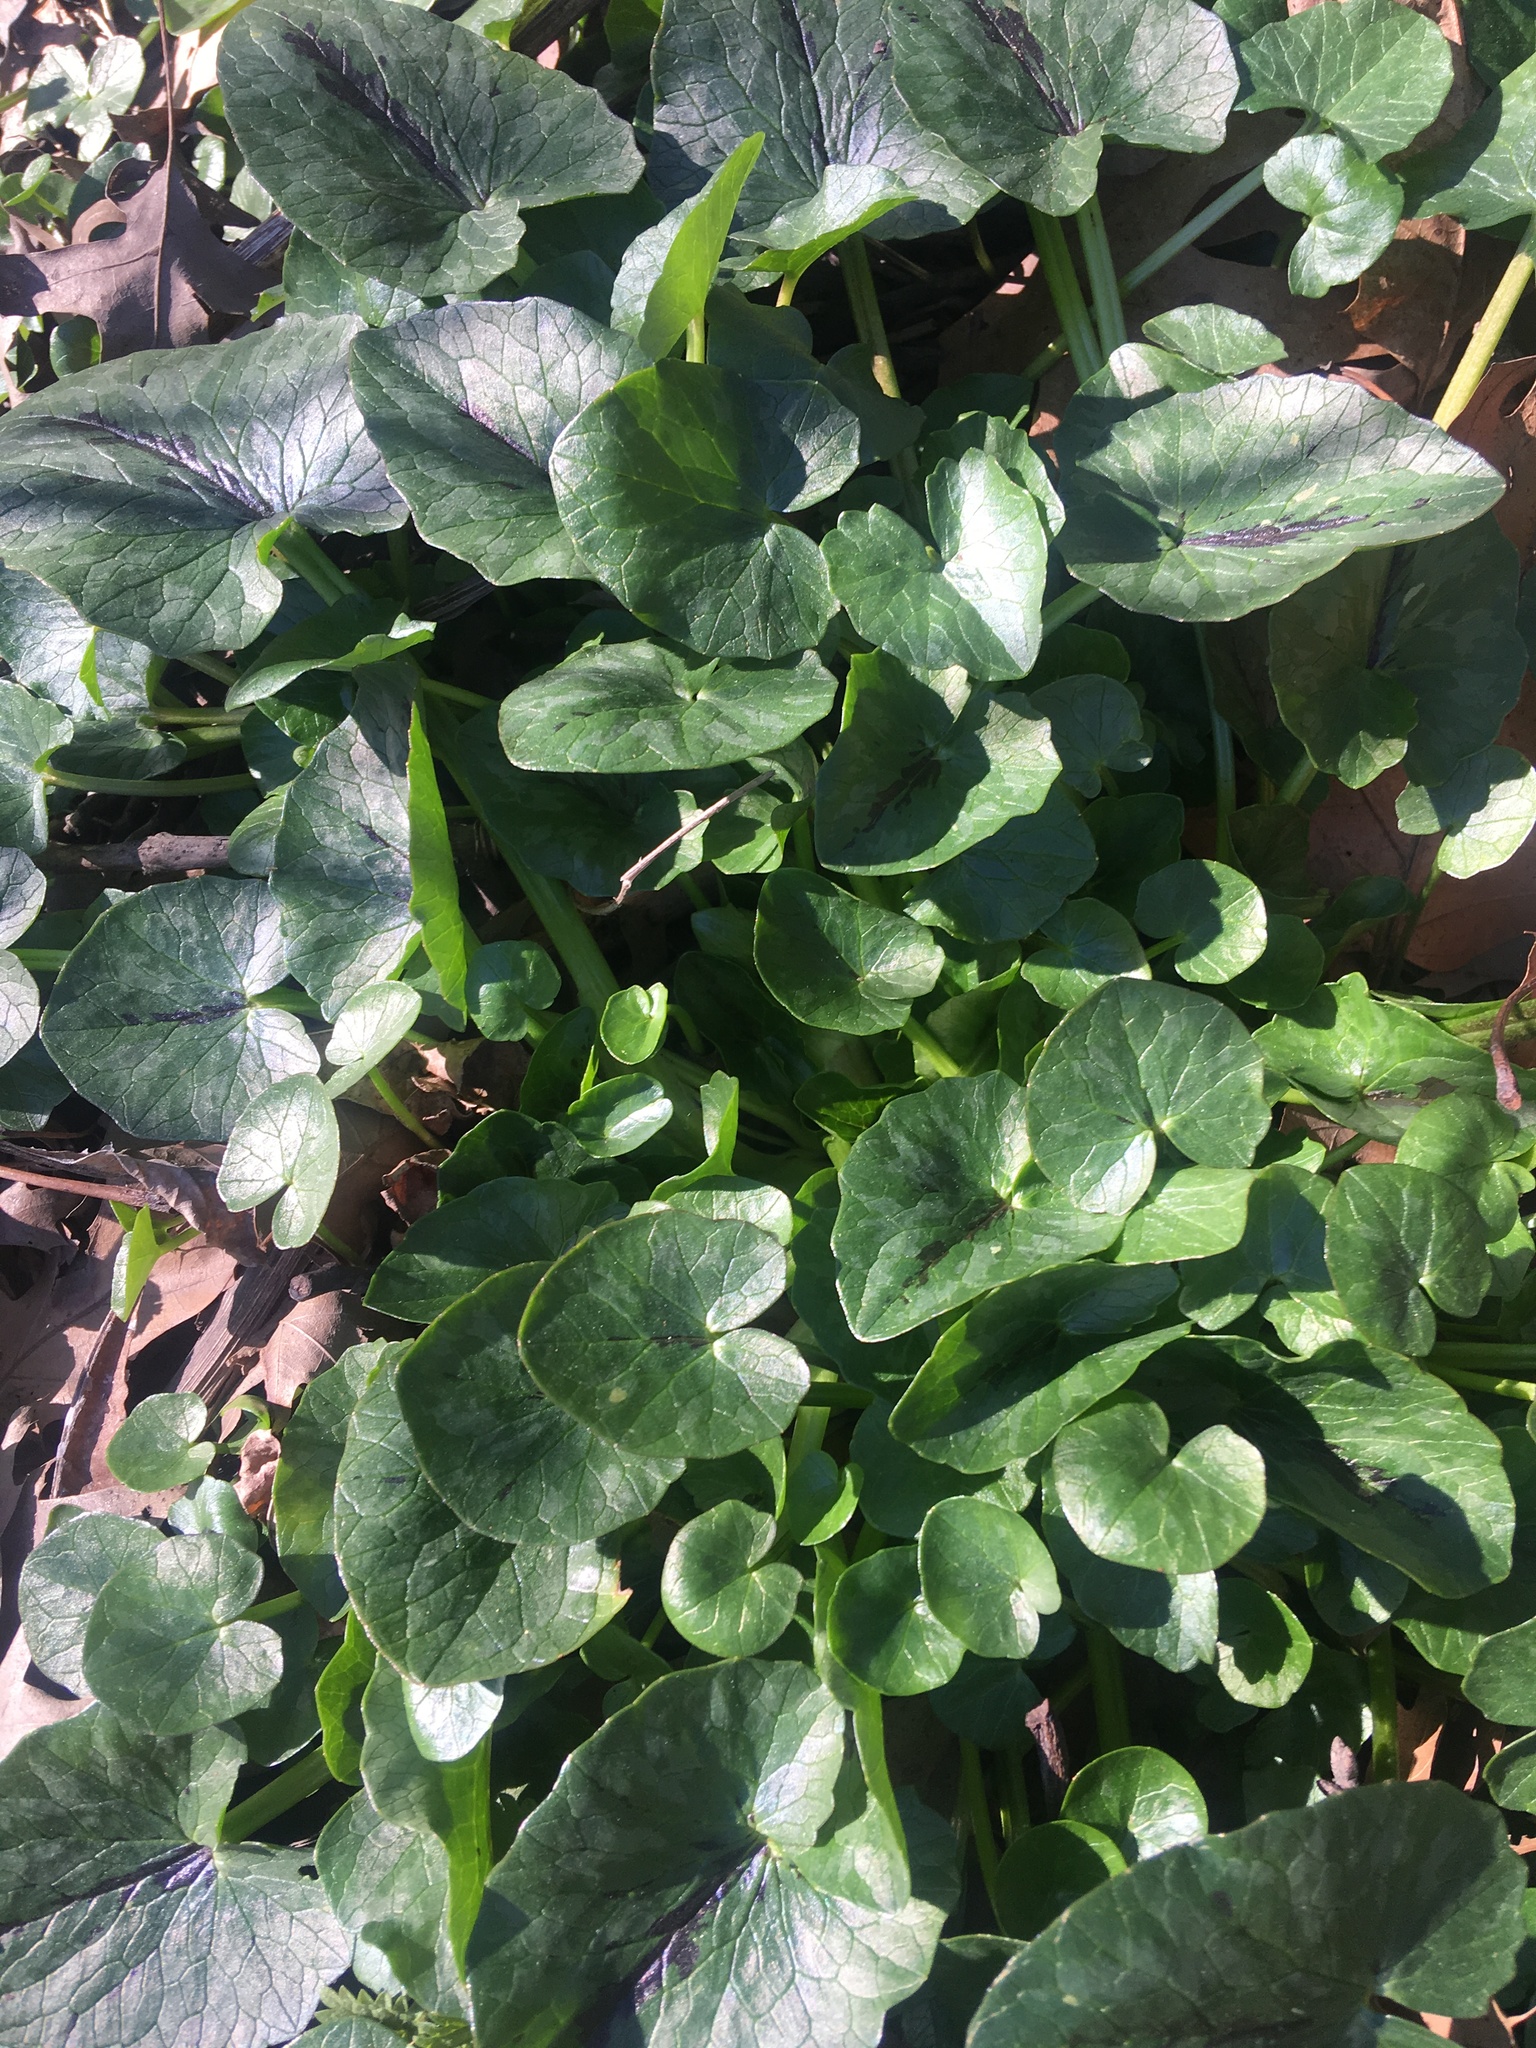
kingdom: Plantae
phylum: Tracheophyta
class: Magnoliopsida
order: Ranunculales
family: Ranunculaceae
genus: Ficaria
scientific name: Ficaria verna
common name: Lesser celandine
